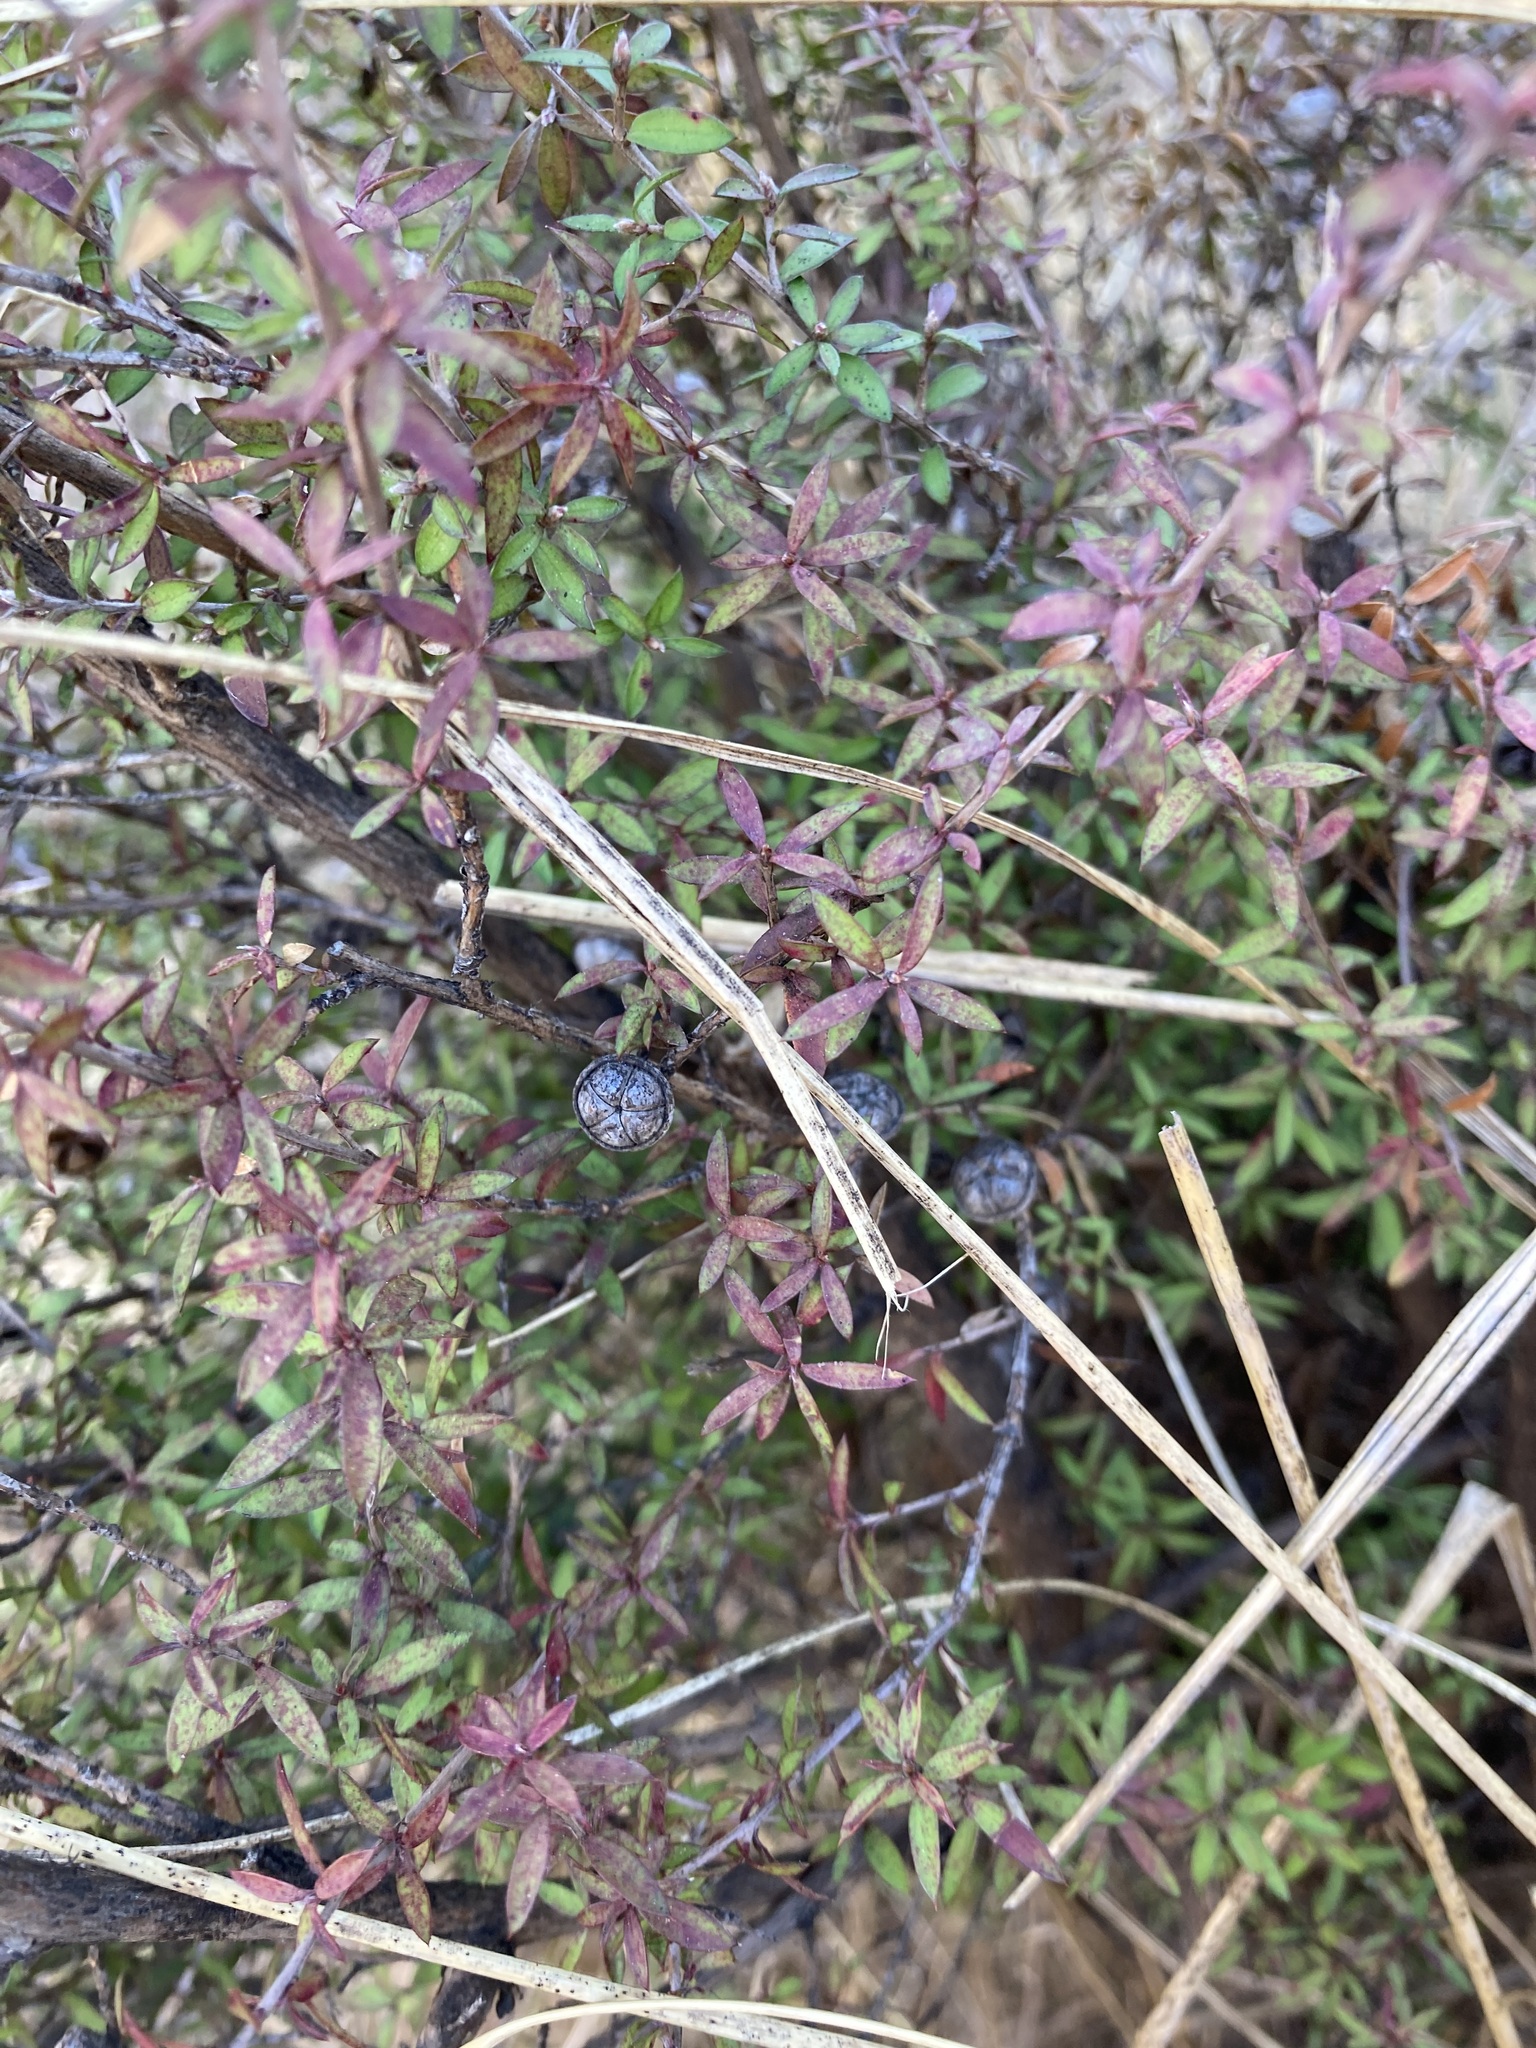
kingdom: Plantae
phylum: Tracheophyta
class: Magnoliopsida
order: Myrtales
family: Myrtaceae
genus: Leptospermum
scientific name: Leptospermum scoparium
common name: Broom tea-tree
